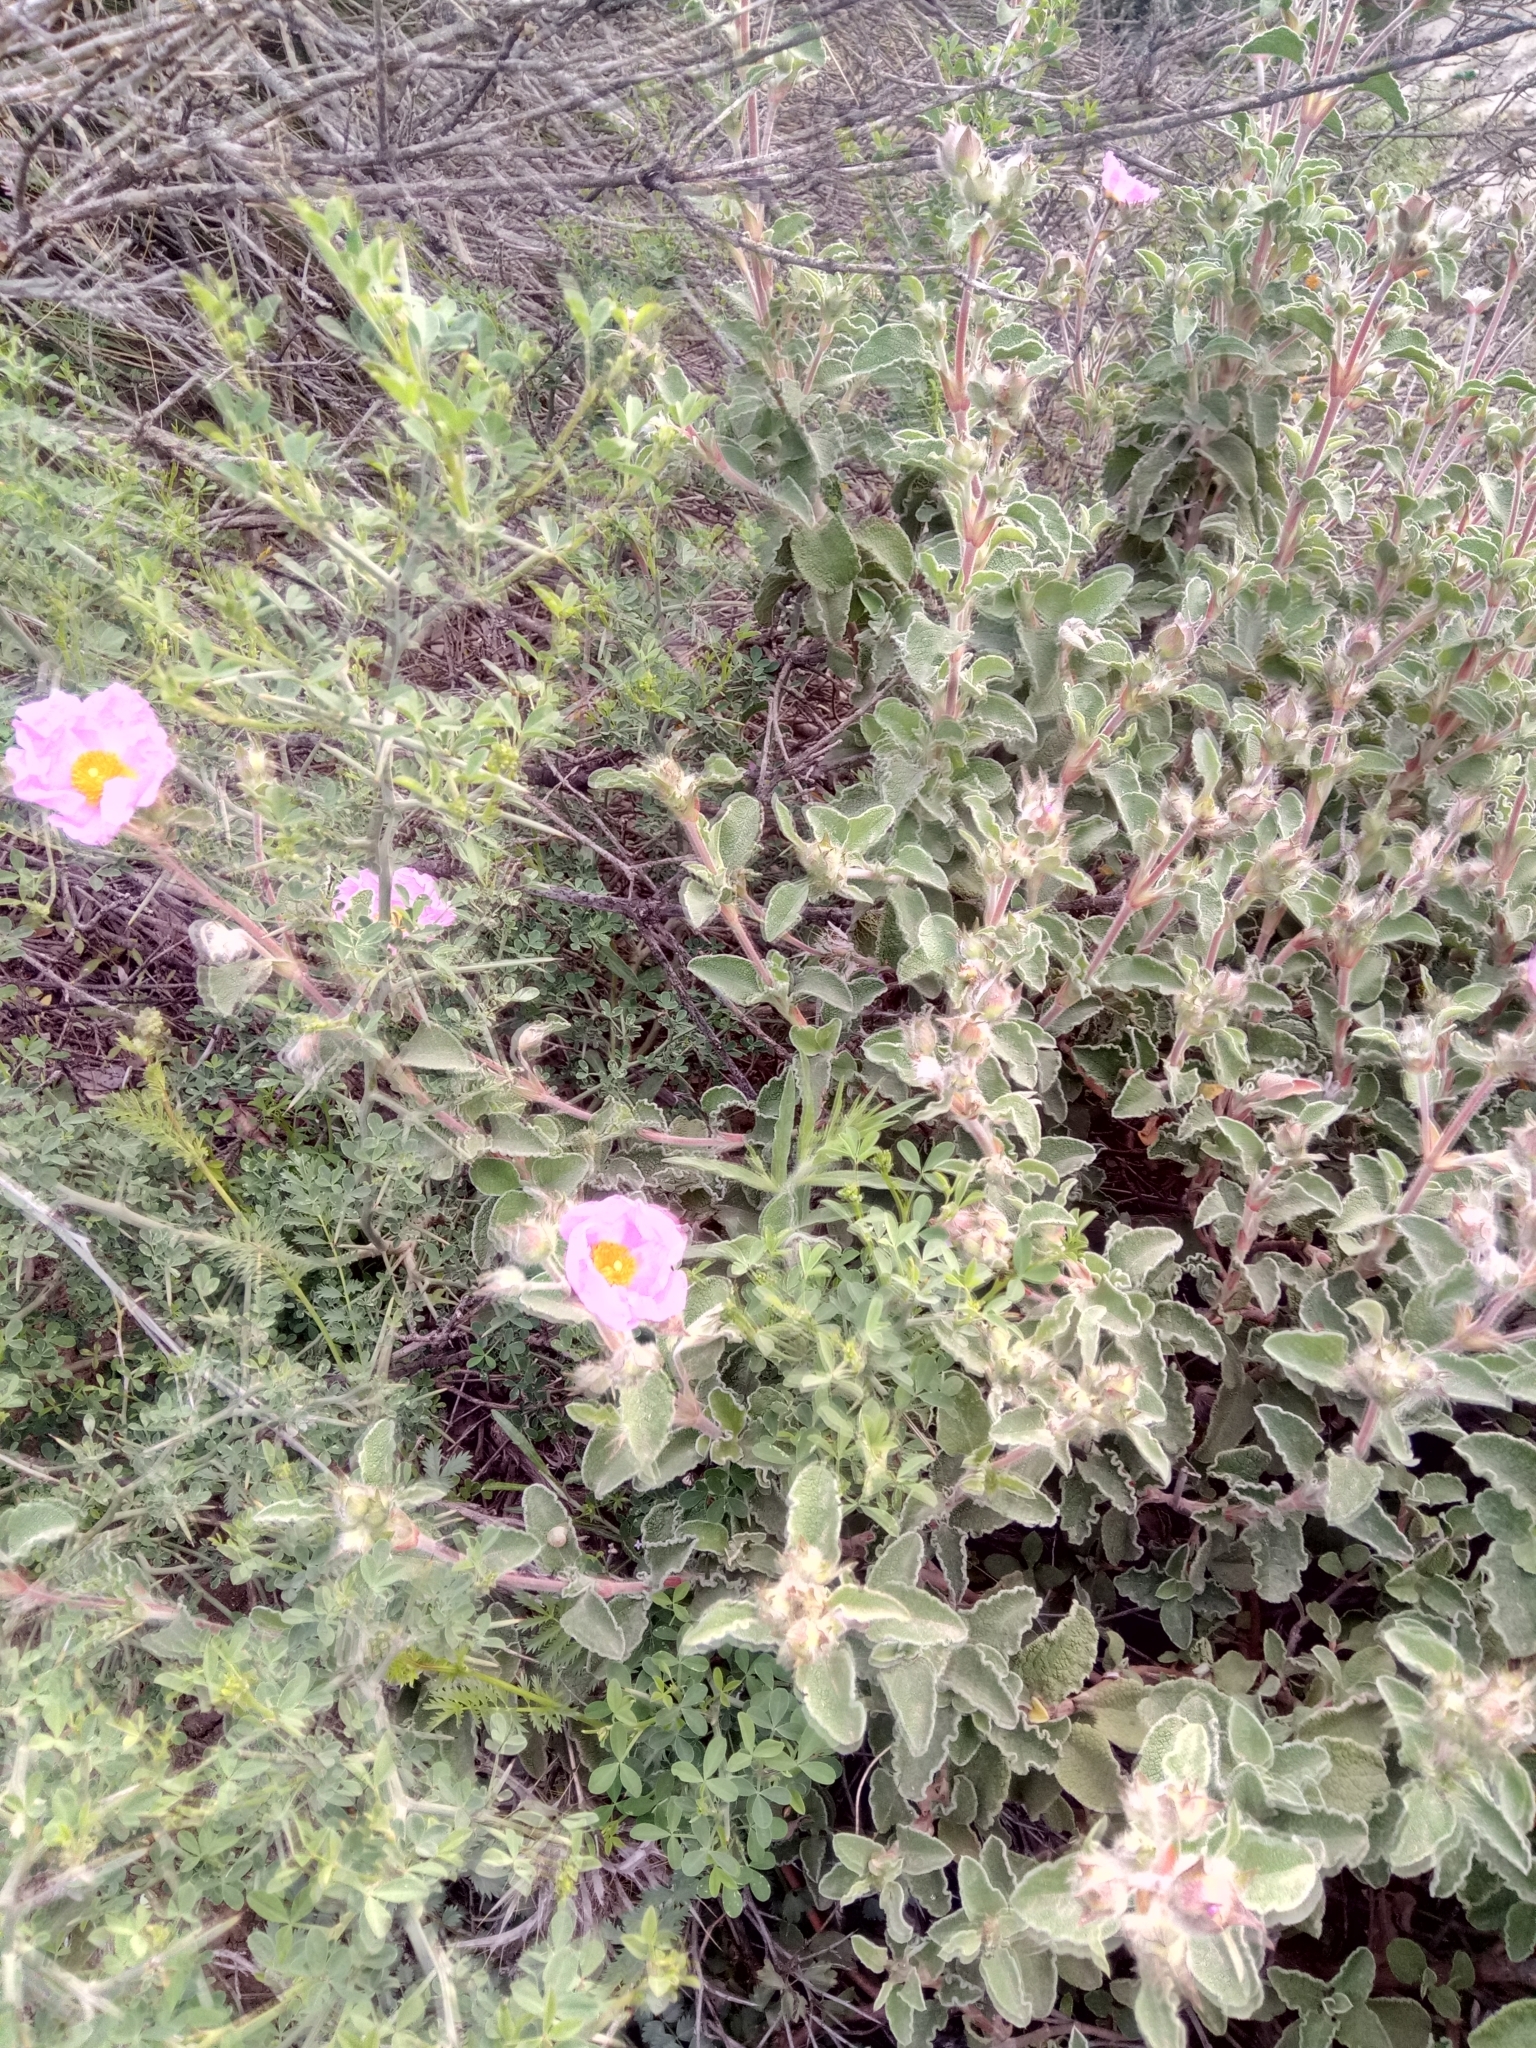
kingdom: Plantae
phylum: Tracheophyta
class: Magnoliopsida
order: Malvales
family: Cistaceae
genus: Cistus
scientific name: Cistus creticus
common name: Cretan rockrose
